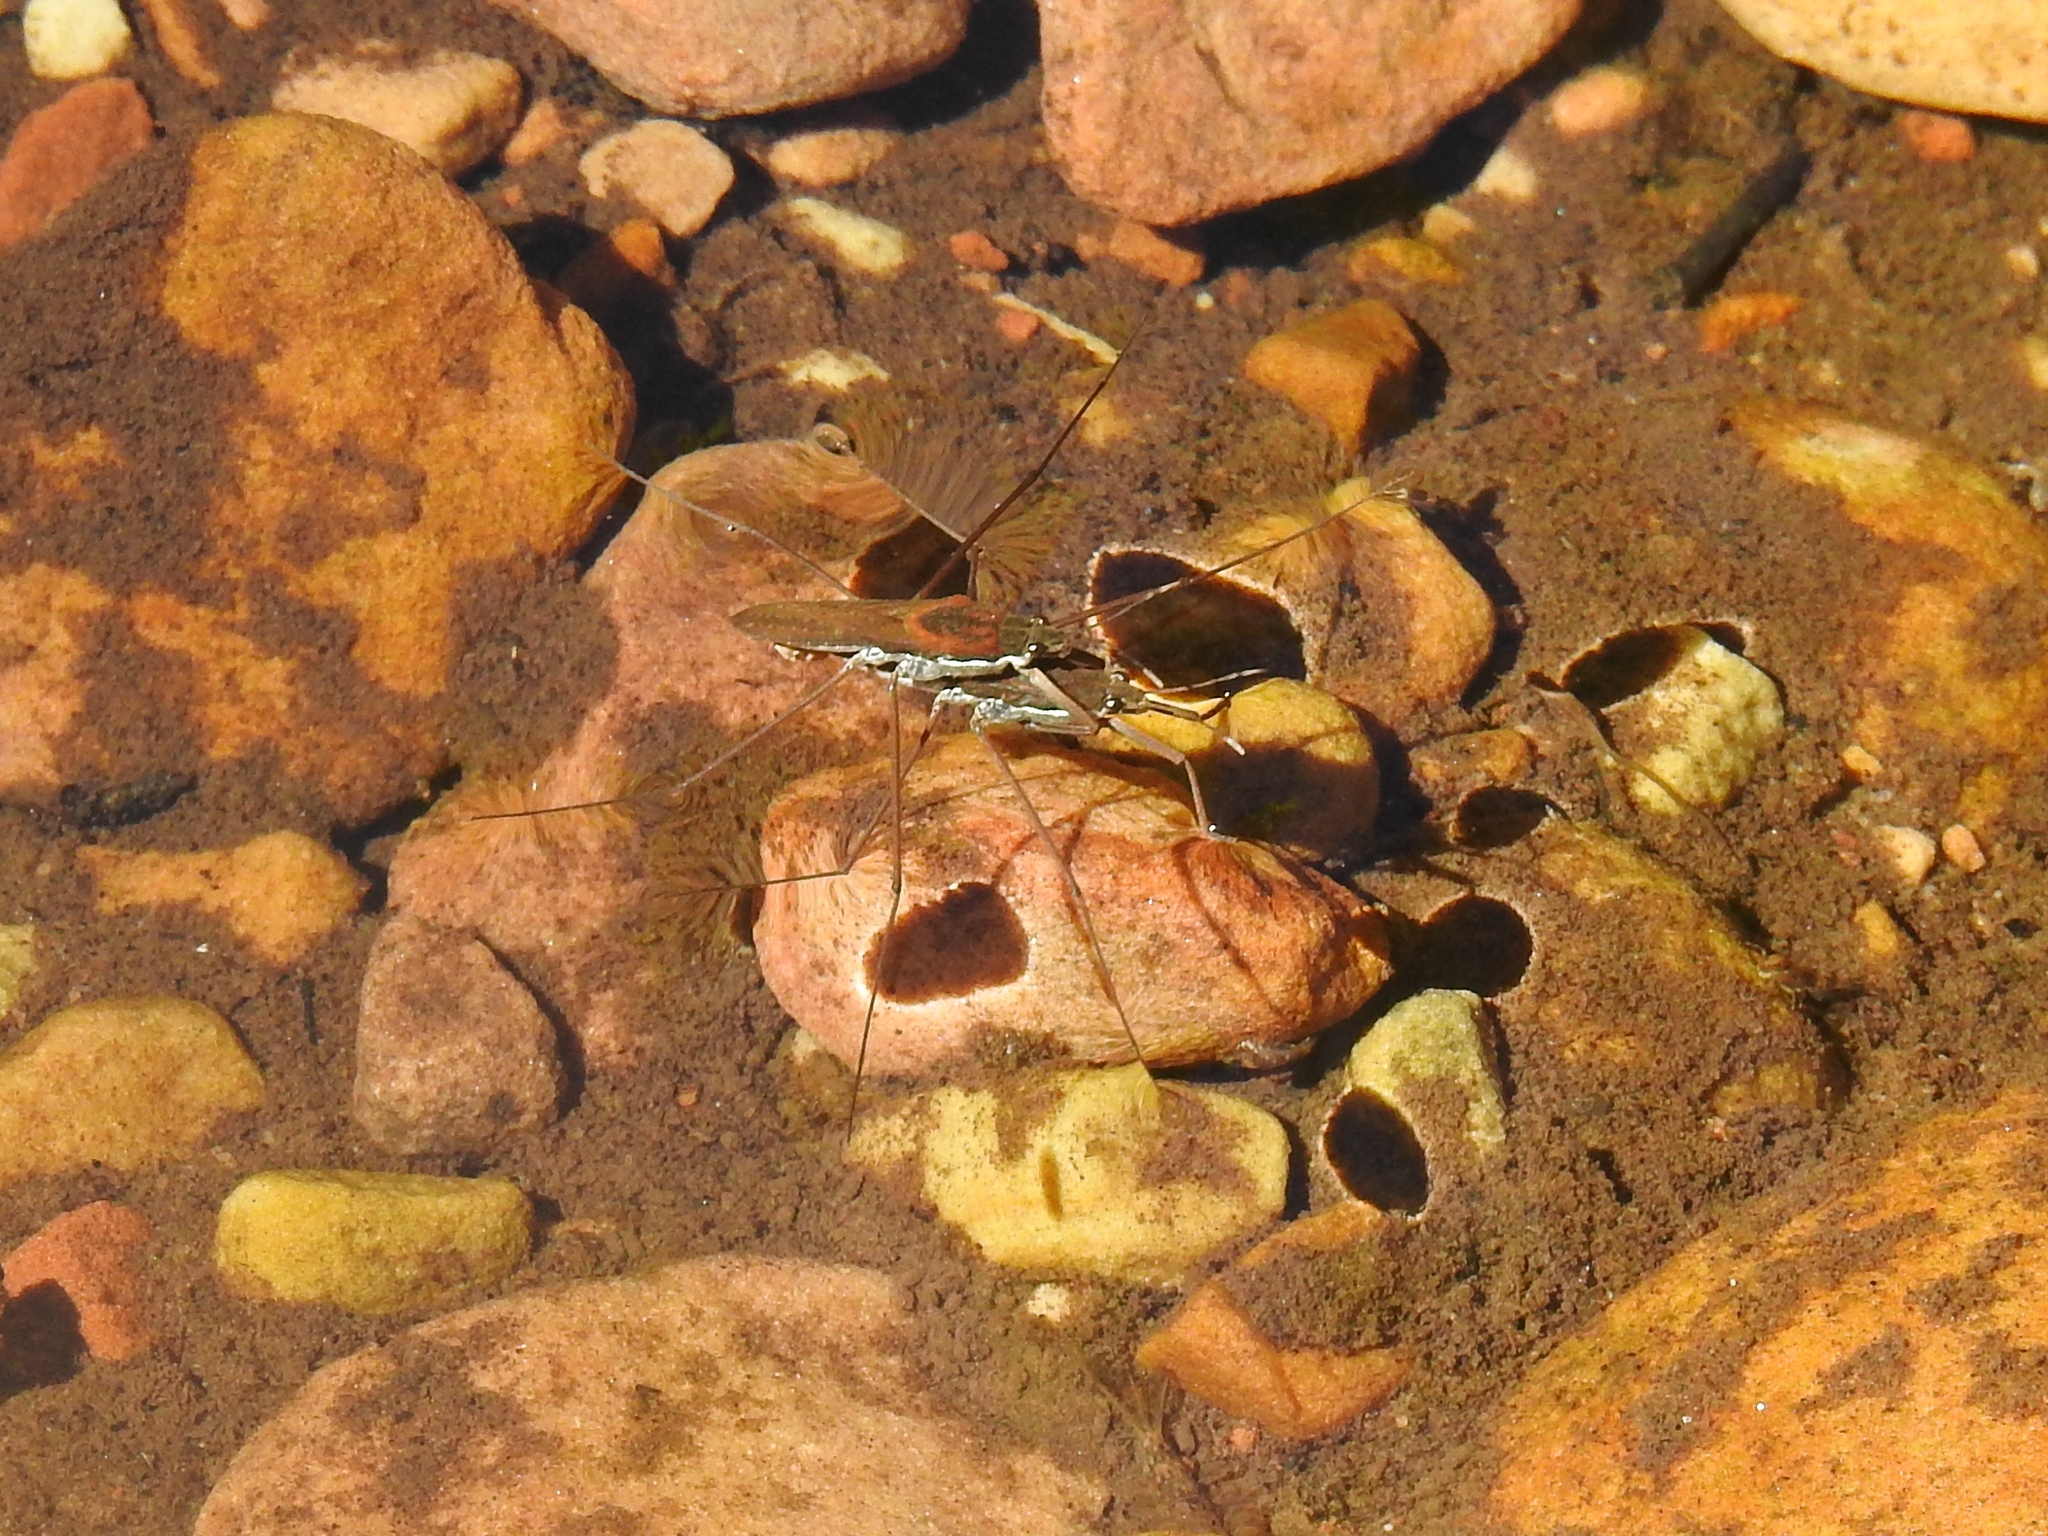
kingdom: Animalia
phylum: Arthropoda
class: Insecta
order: Hemiptera
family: Gerridae
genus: Aquarius
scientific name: Aquarius remigis
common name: Common water strider
